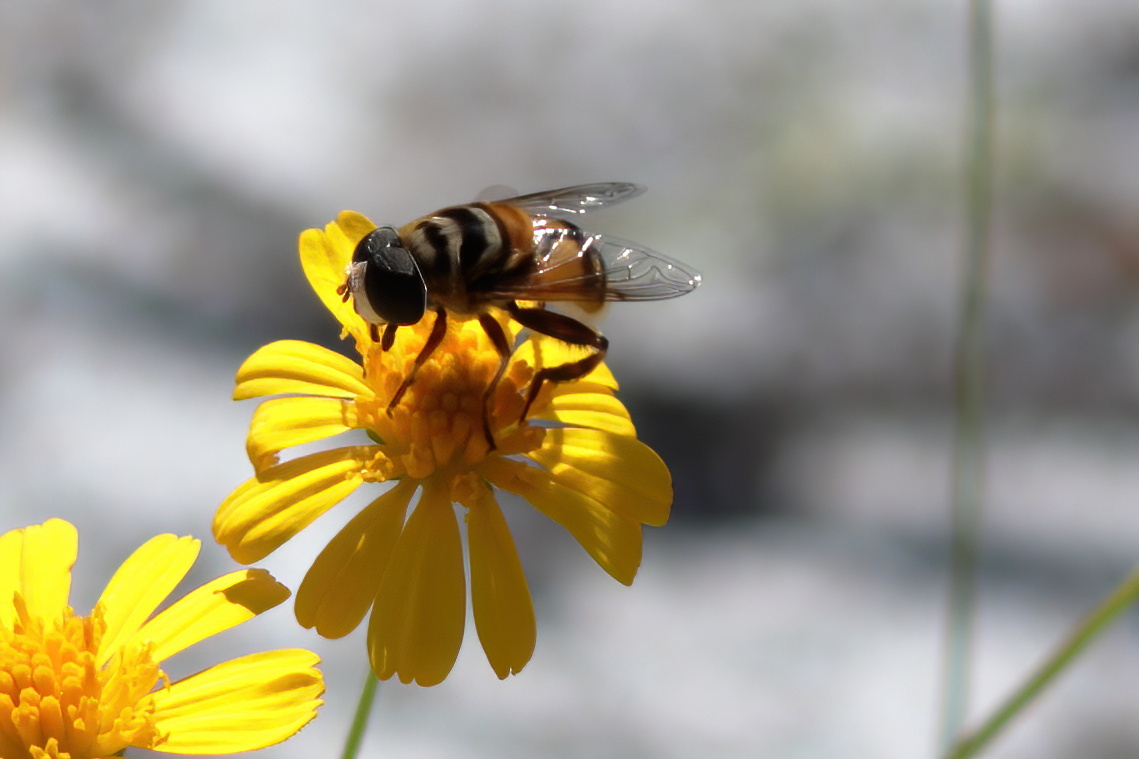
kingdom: Animalia
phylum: Arthropoda
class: Insecta
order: Diptera
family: Syrphidae
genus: Palpada
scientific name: Palpada vinetorum
